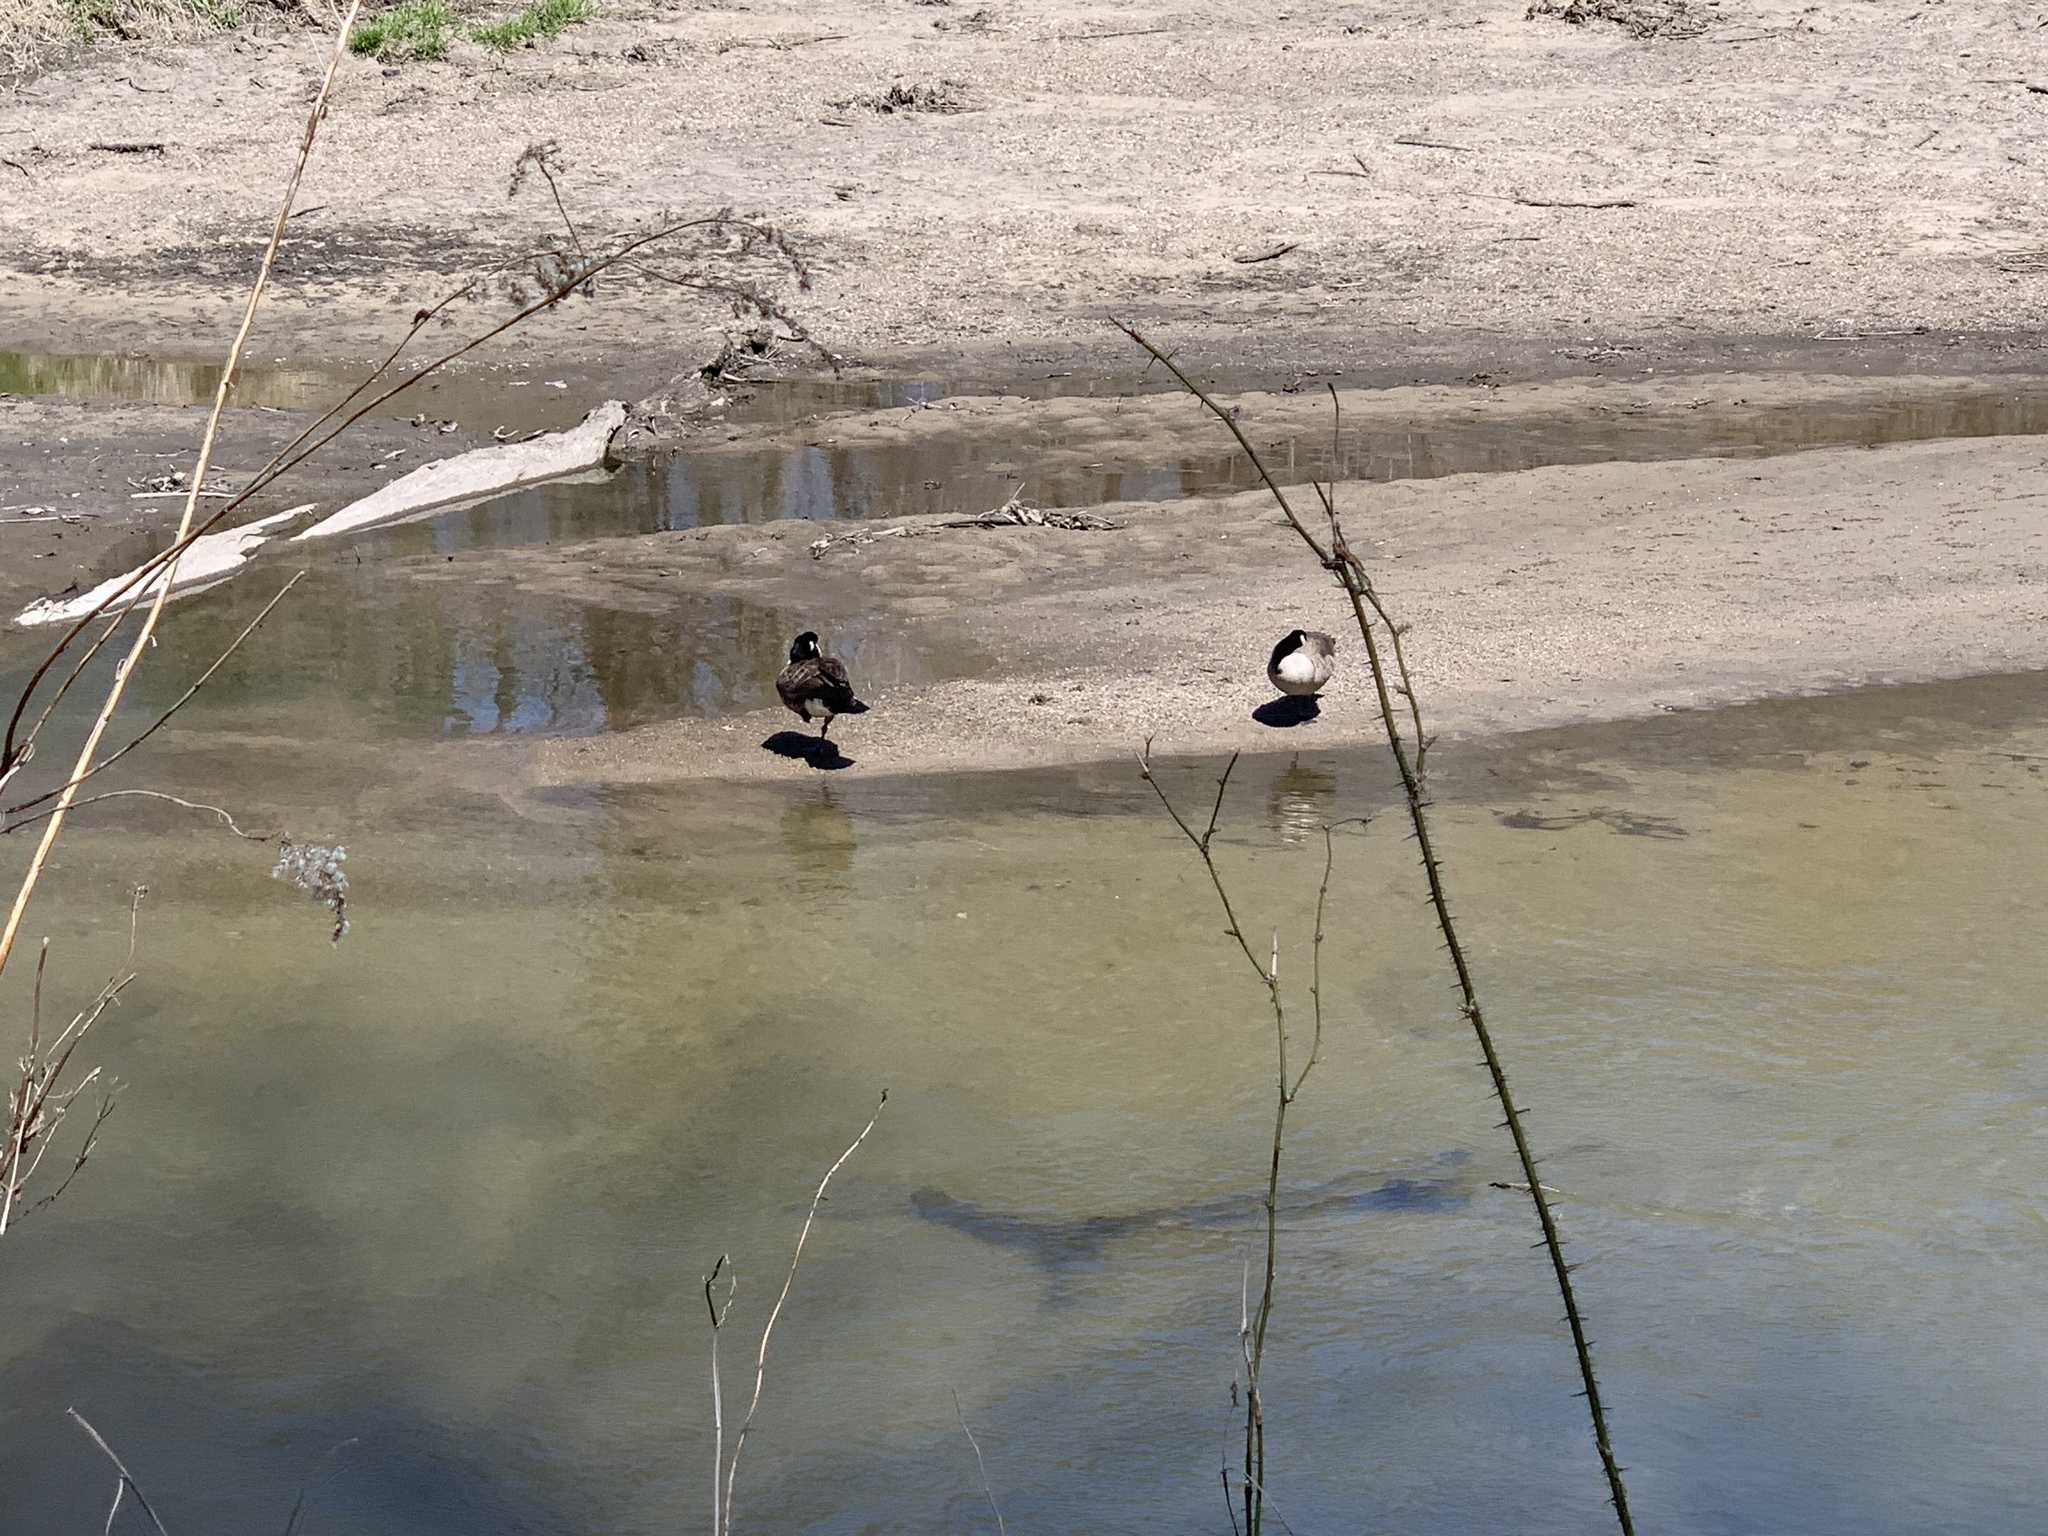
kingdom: Animalia
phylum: Chordata
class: Aves
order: Anseriformes
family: Anatidae
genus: Branta
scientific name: Branta canadensis
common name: Canada goose
